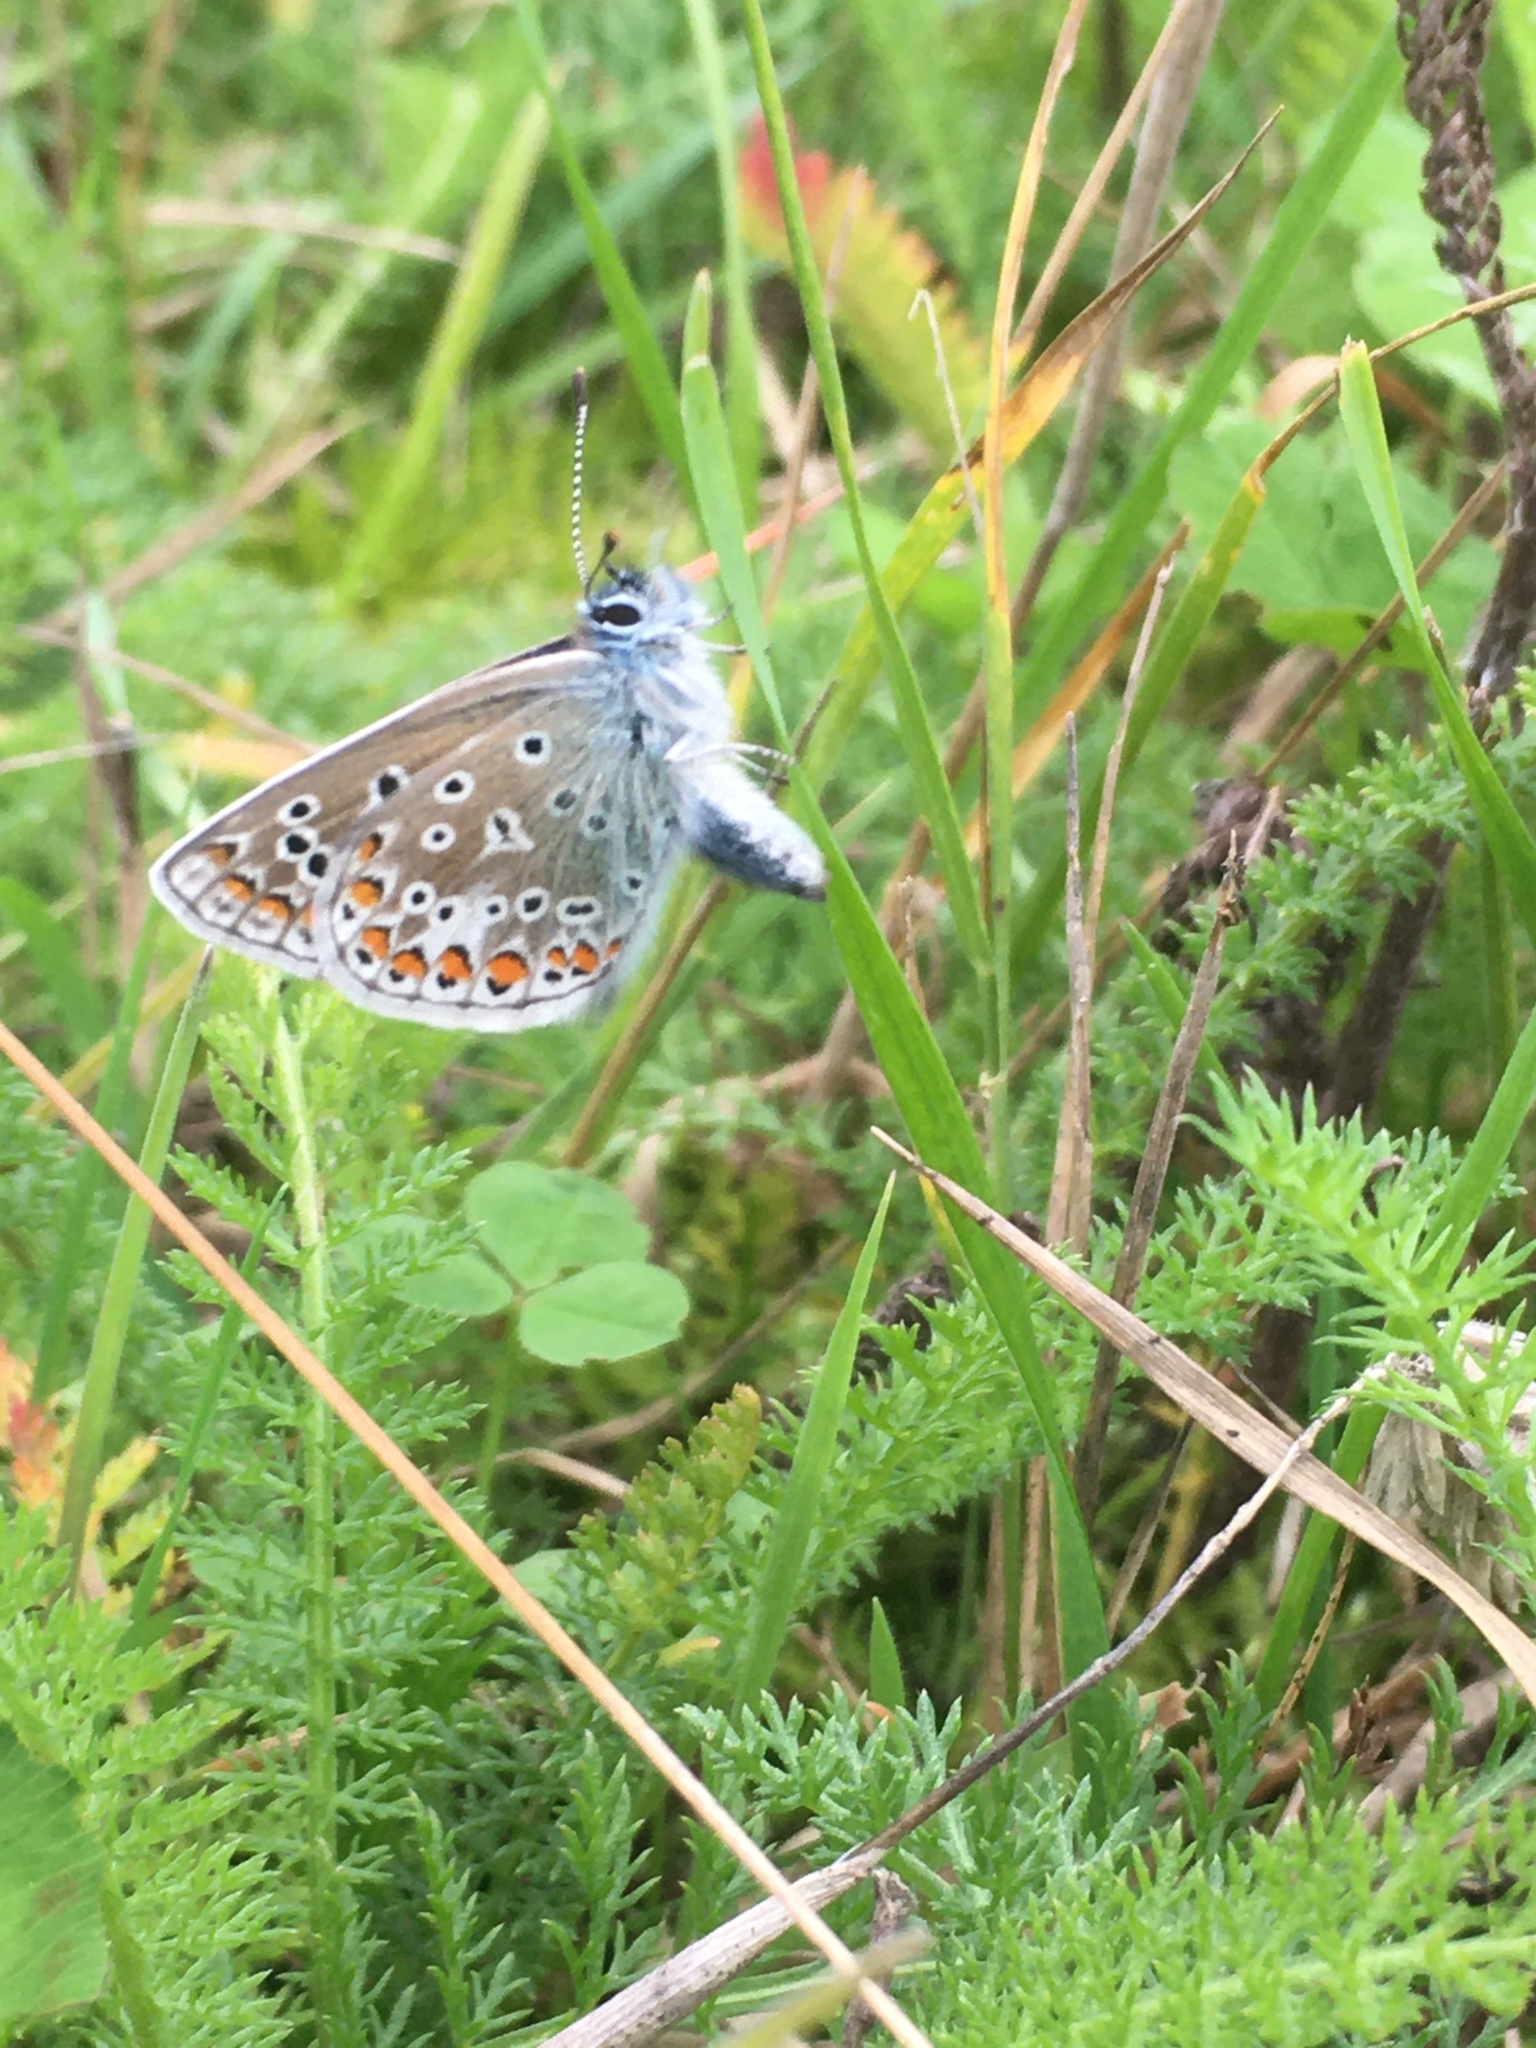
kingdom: Animalia
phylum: Arthropoda
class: Insecta
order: Lepidoptera
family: Lycaenidae
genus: Polyommatus
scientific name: Polyommatus icarus
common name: Common blue
